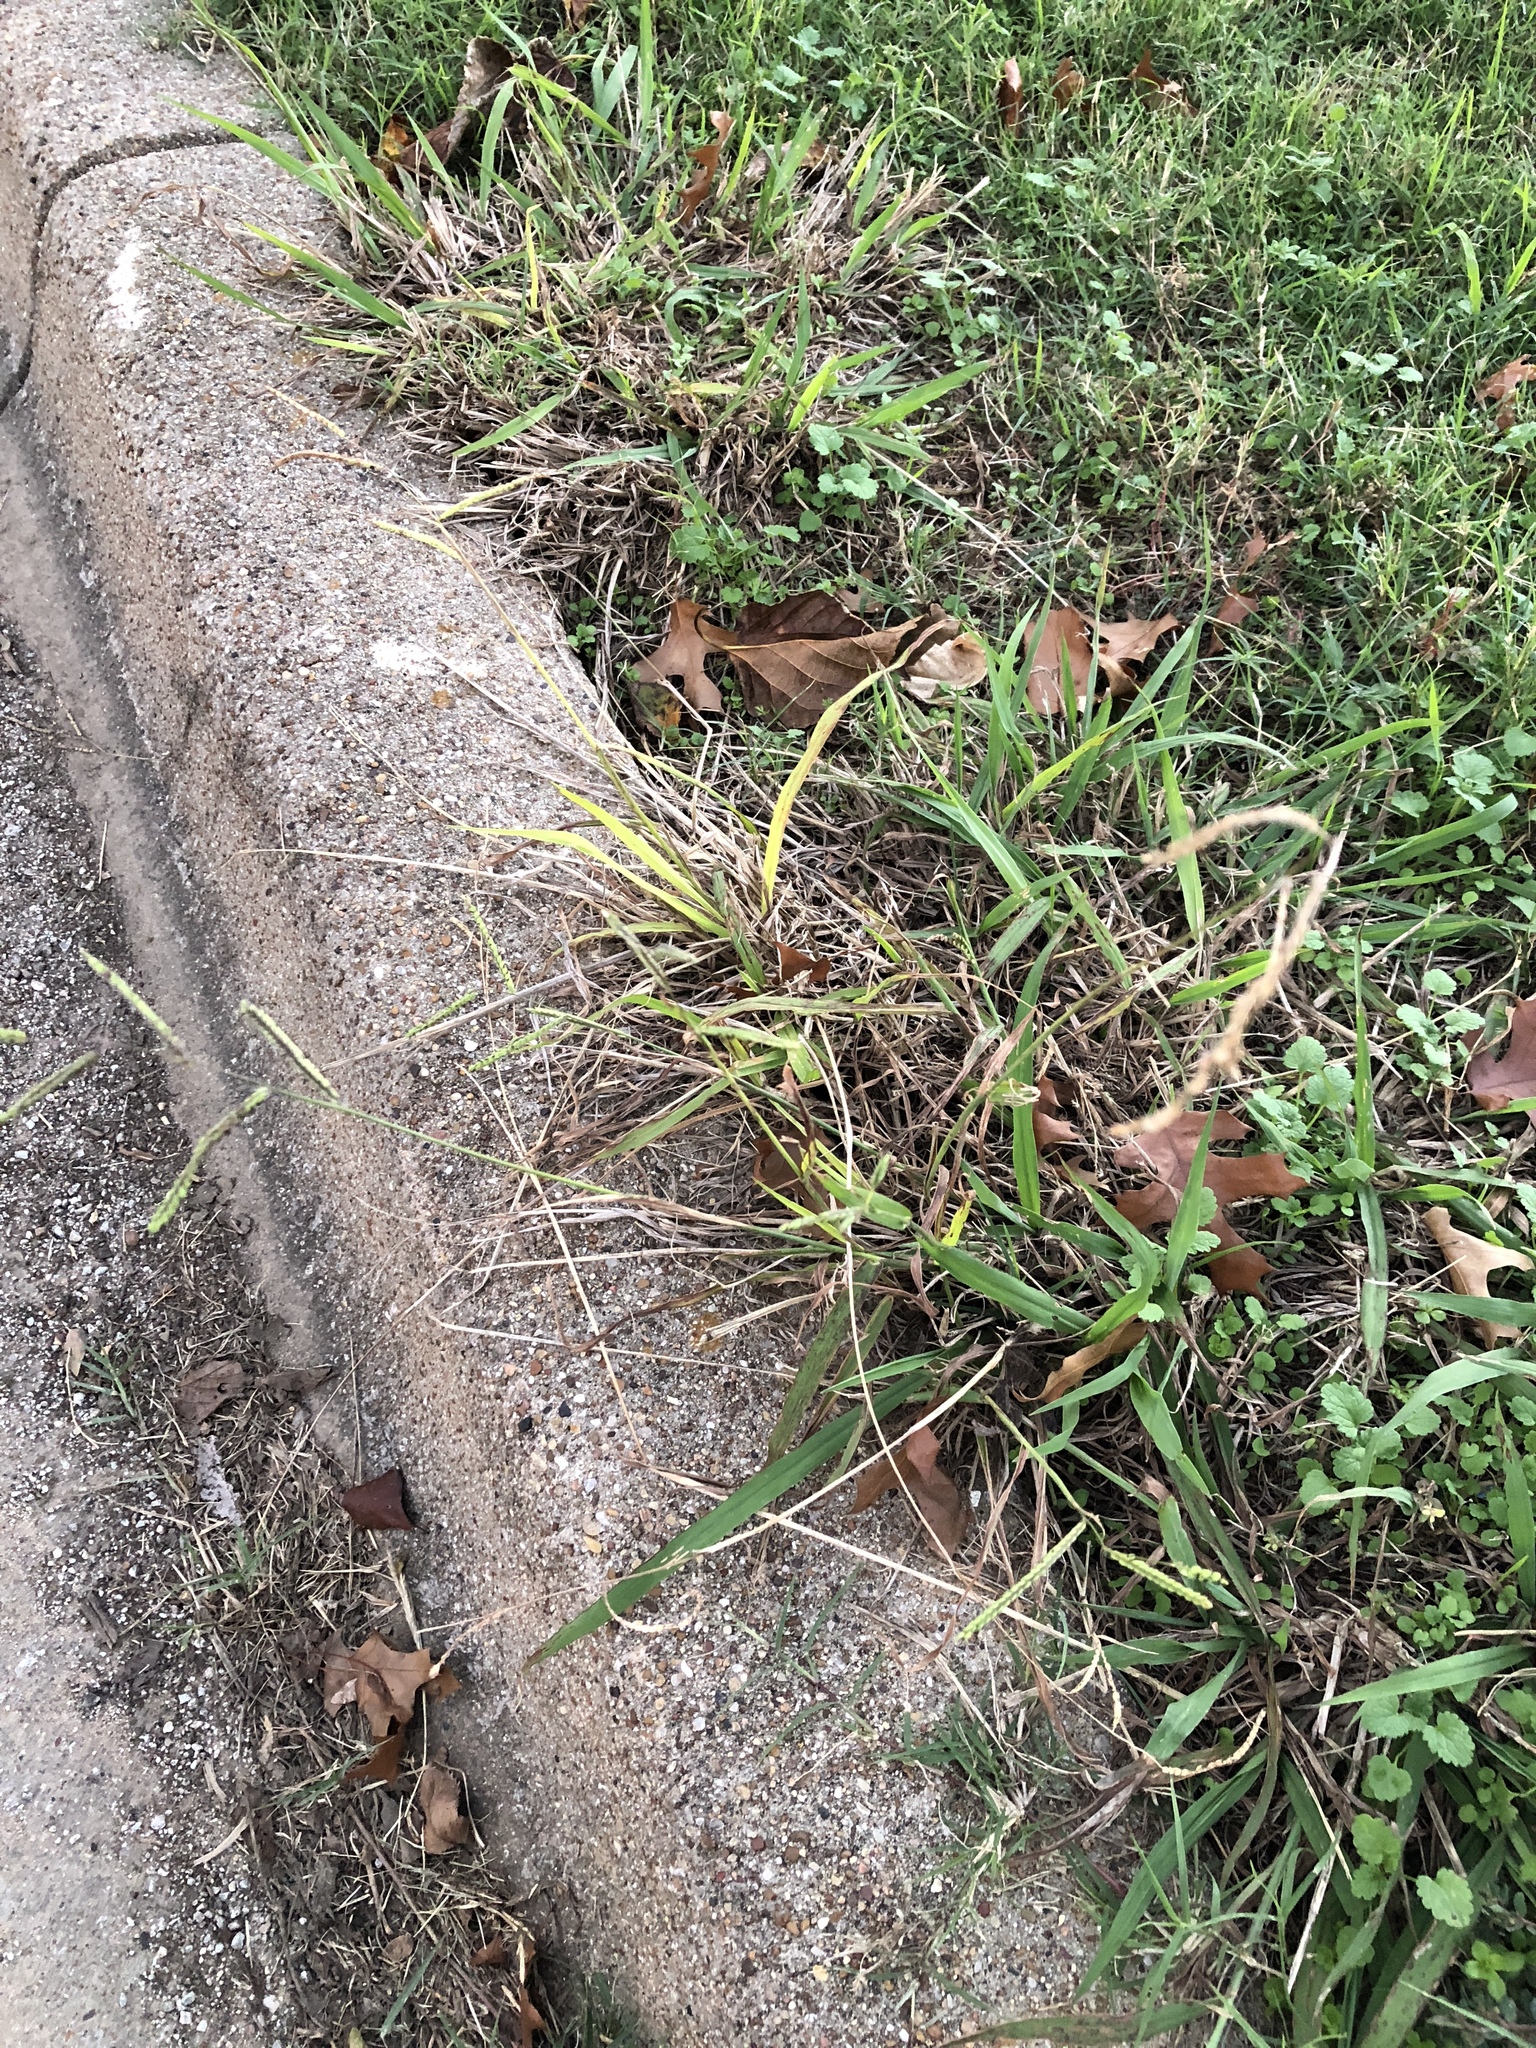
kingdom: Plantae
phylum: Tracheophyta
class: Liliopsida
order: Poales
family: Poaceae
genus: Paspalum
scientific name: Paspalum dilatatum
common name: Dallisgrass
